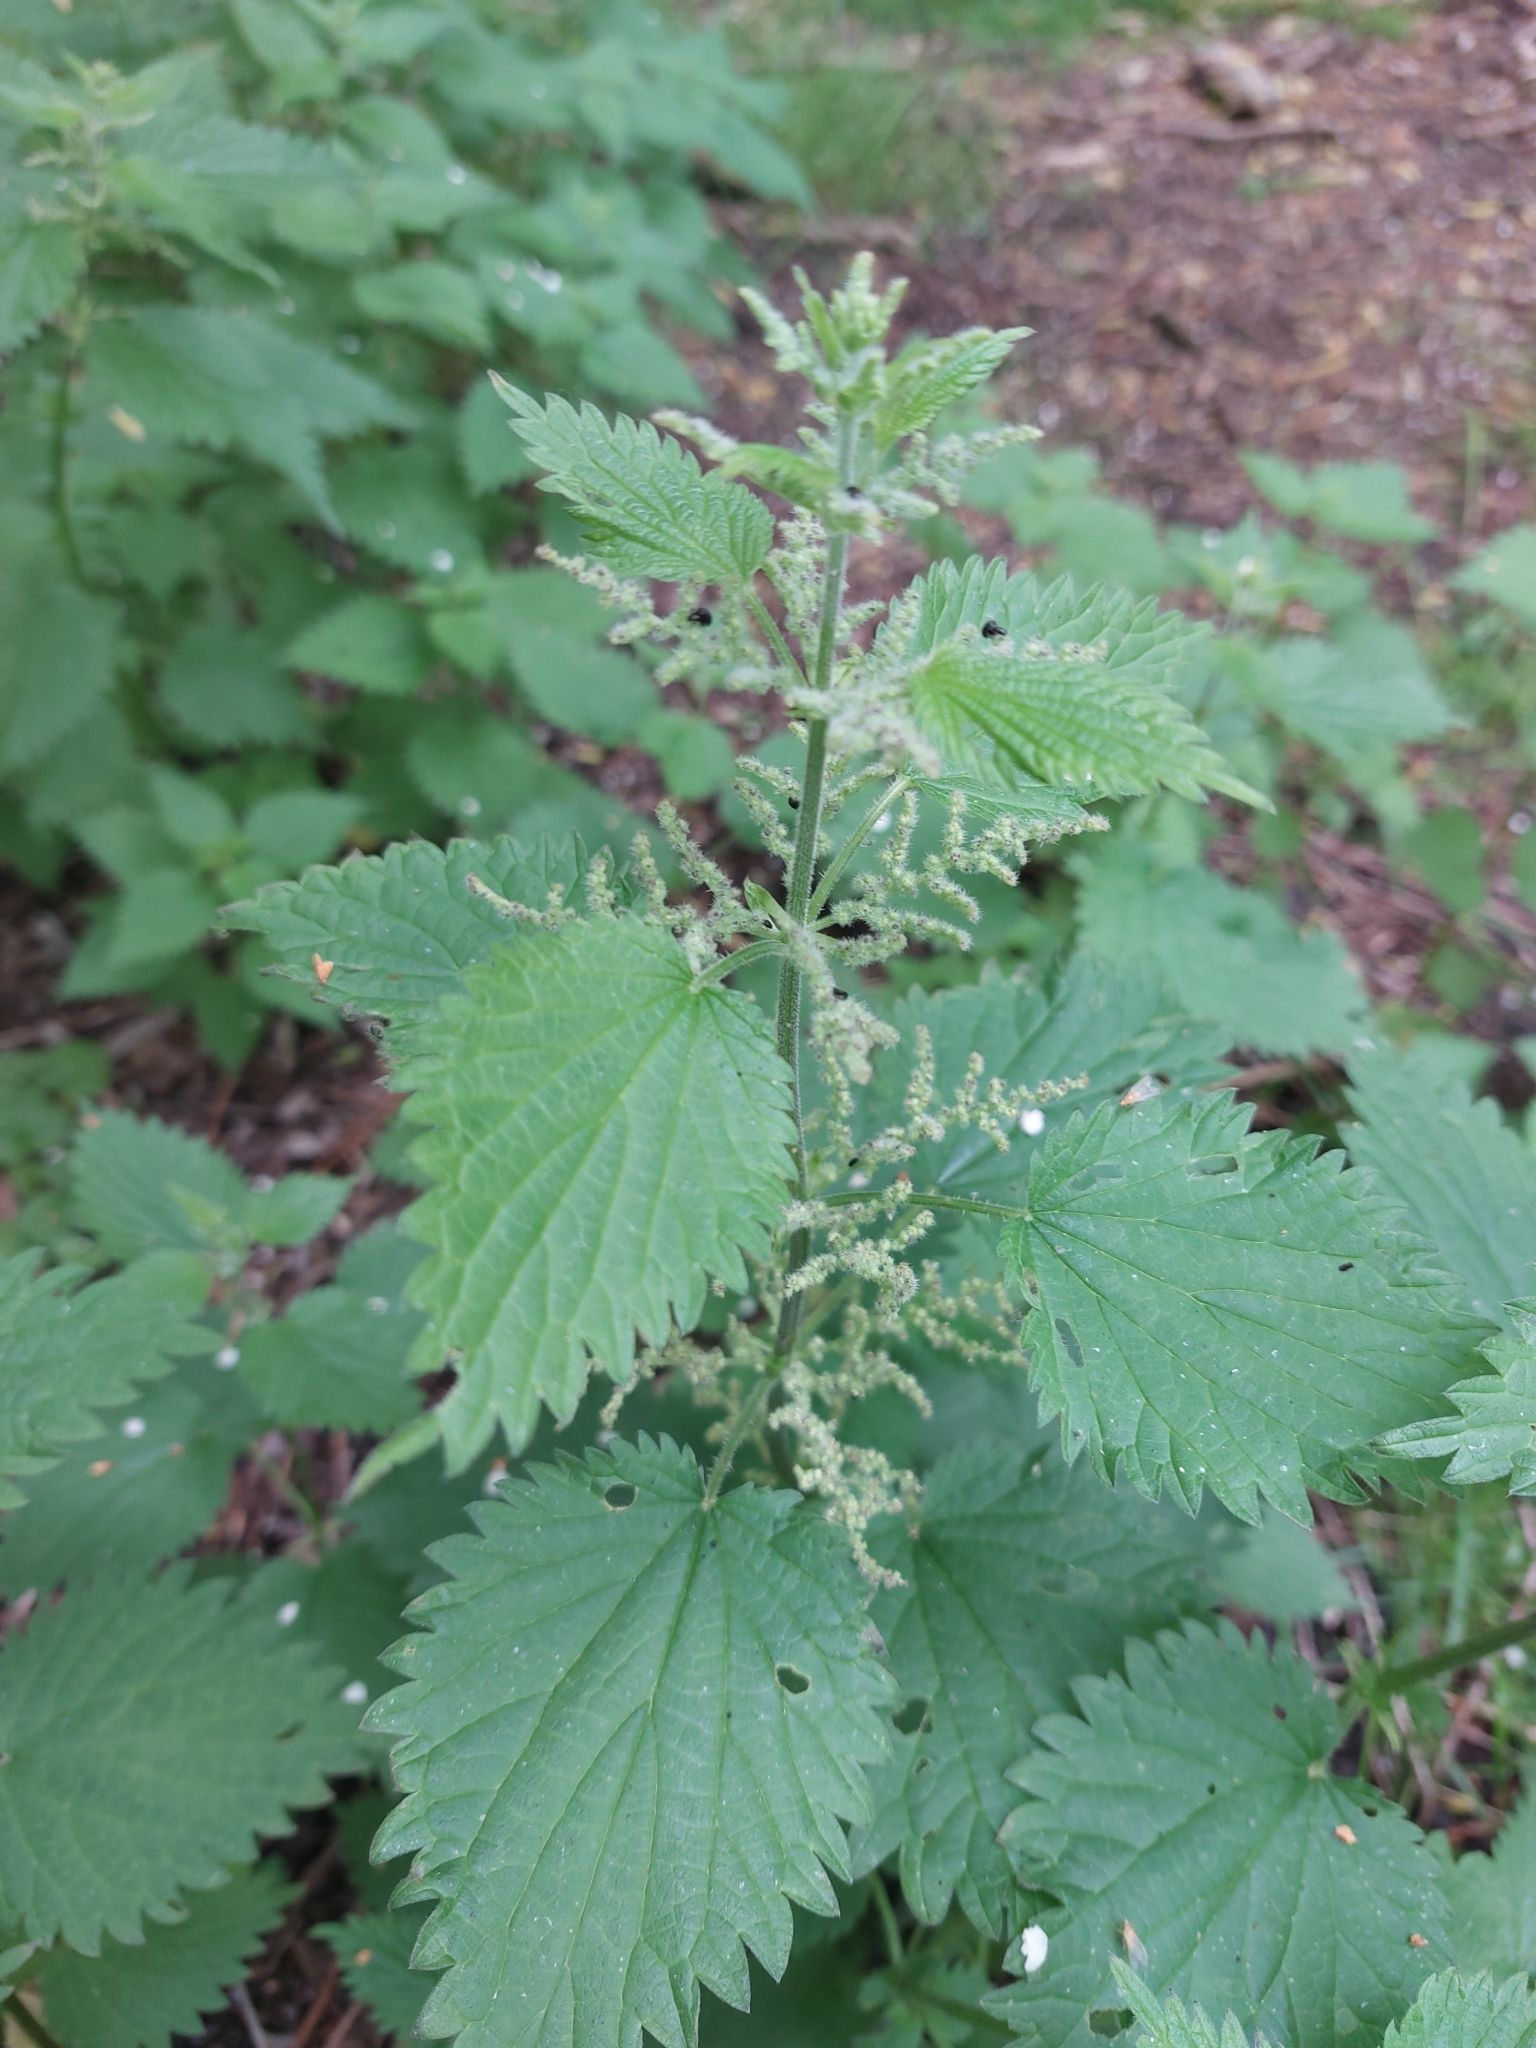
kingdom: Plantae
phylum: Tracheophyta
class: Magnoliopsida
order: Rosales
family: Urticaceae
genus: Urtica
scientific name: Urtica dioica
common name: Common nettle
